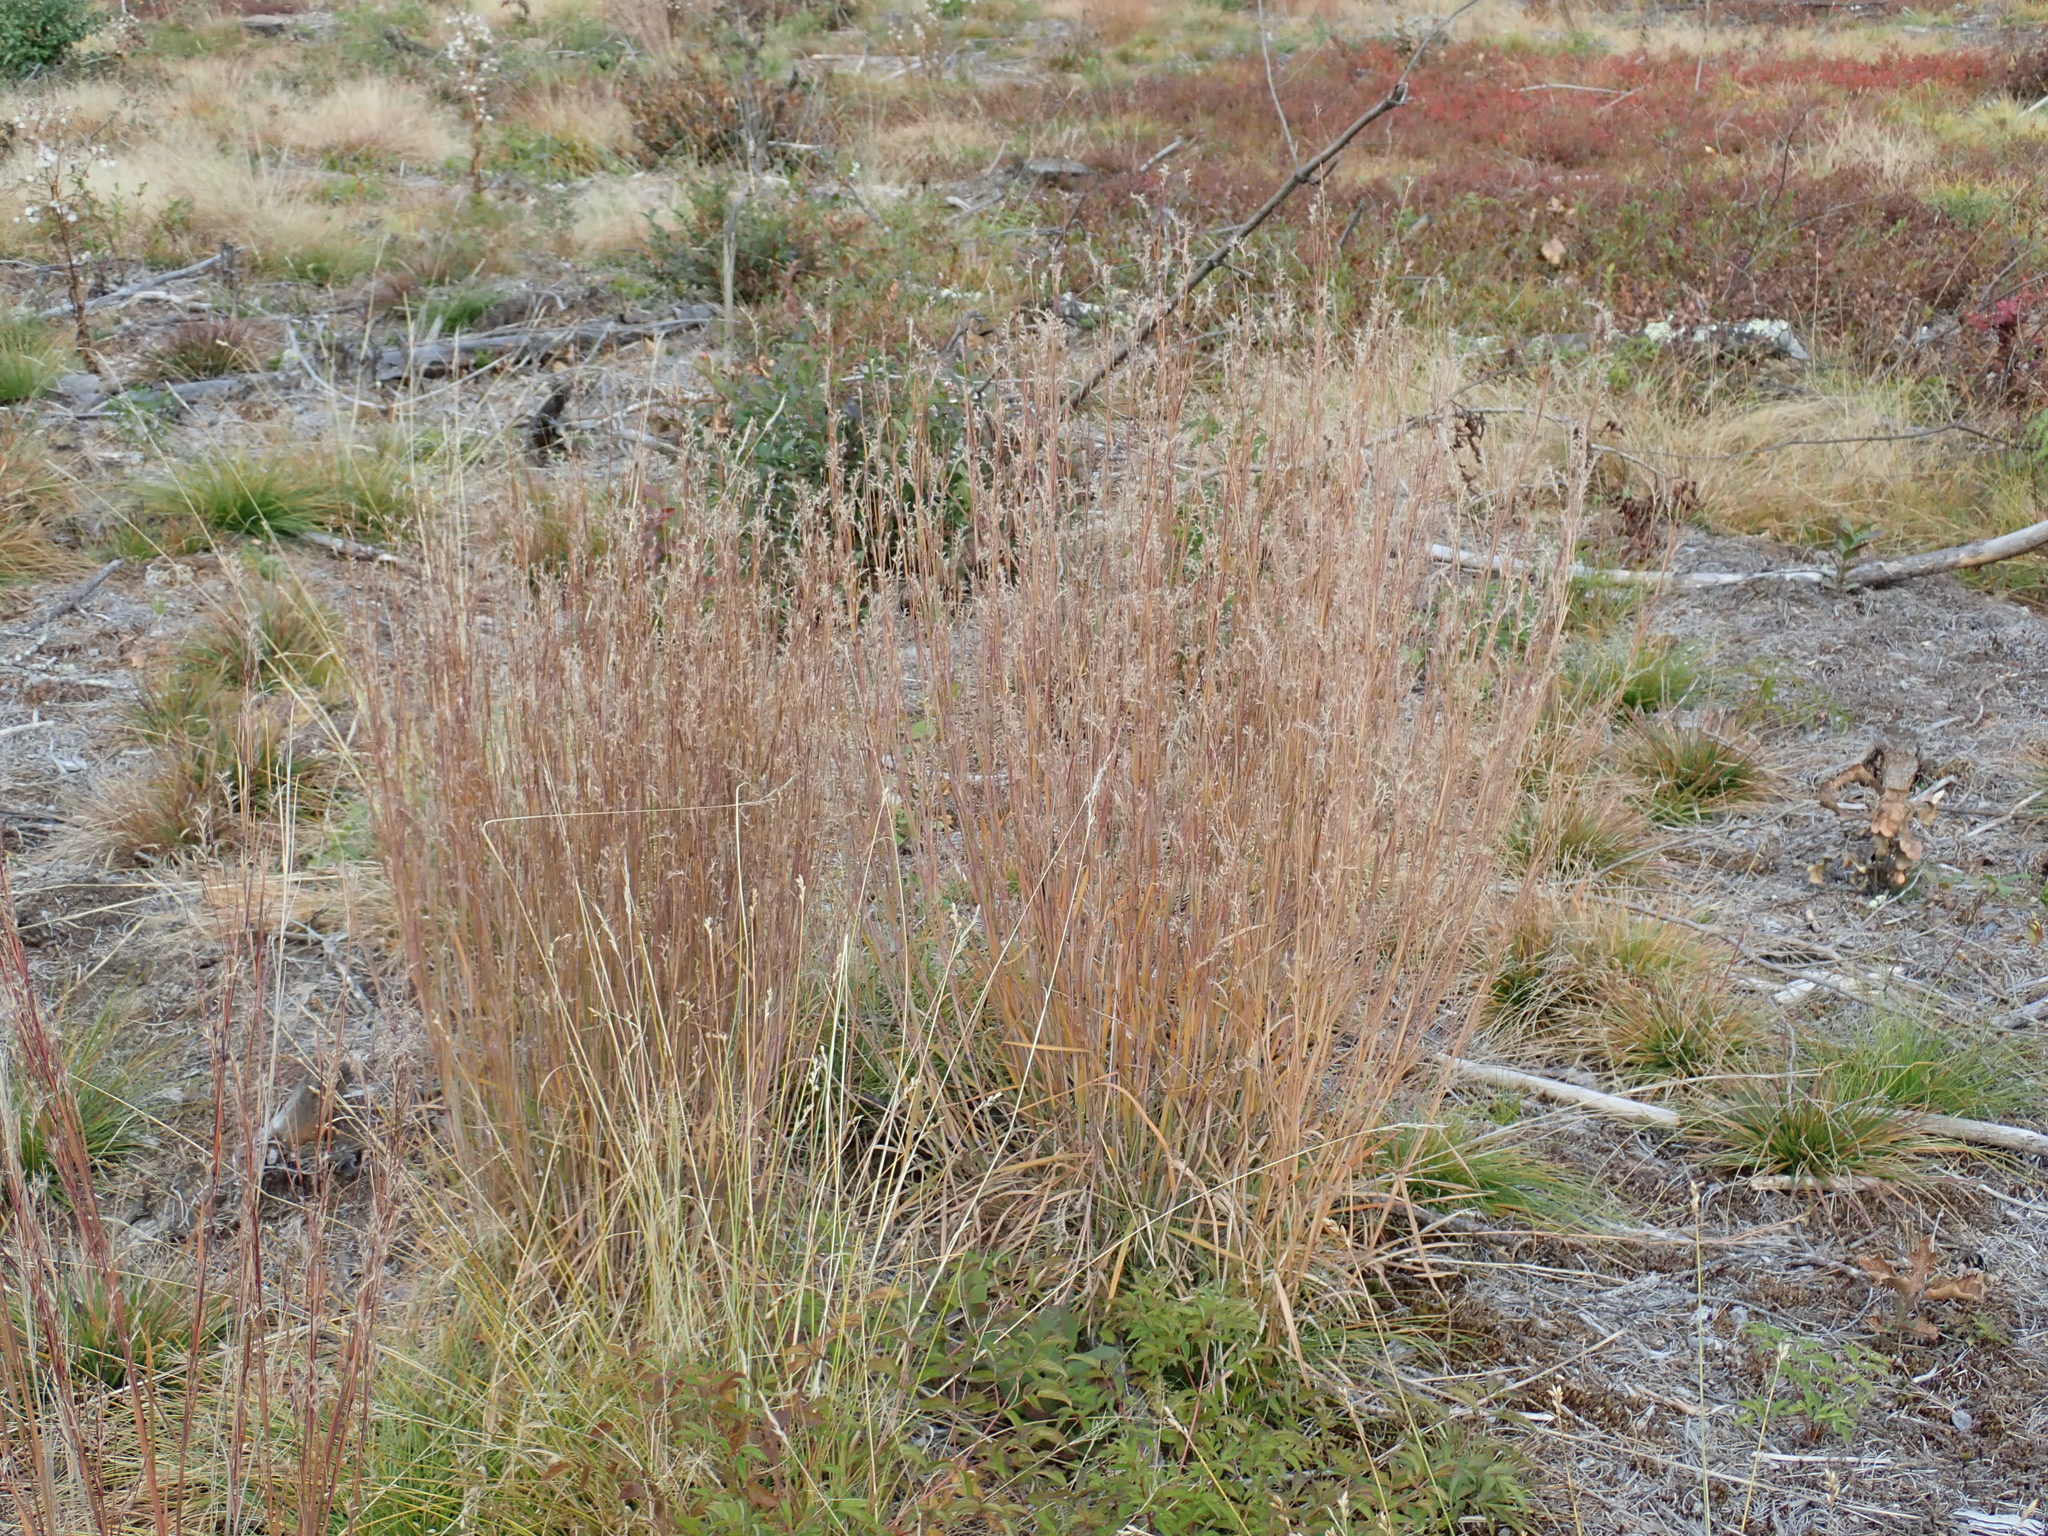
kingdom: Plantae
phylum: Tracheophyta
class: Liliopsida
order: Poales
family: Poaceae
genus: Schizachyrium
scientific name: Schizachyrium scoparium
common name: Little bluestem
